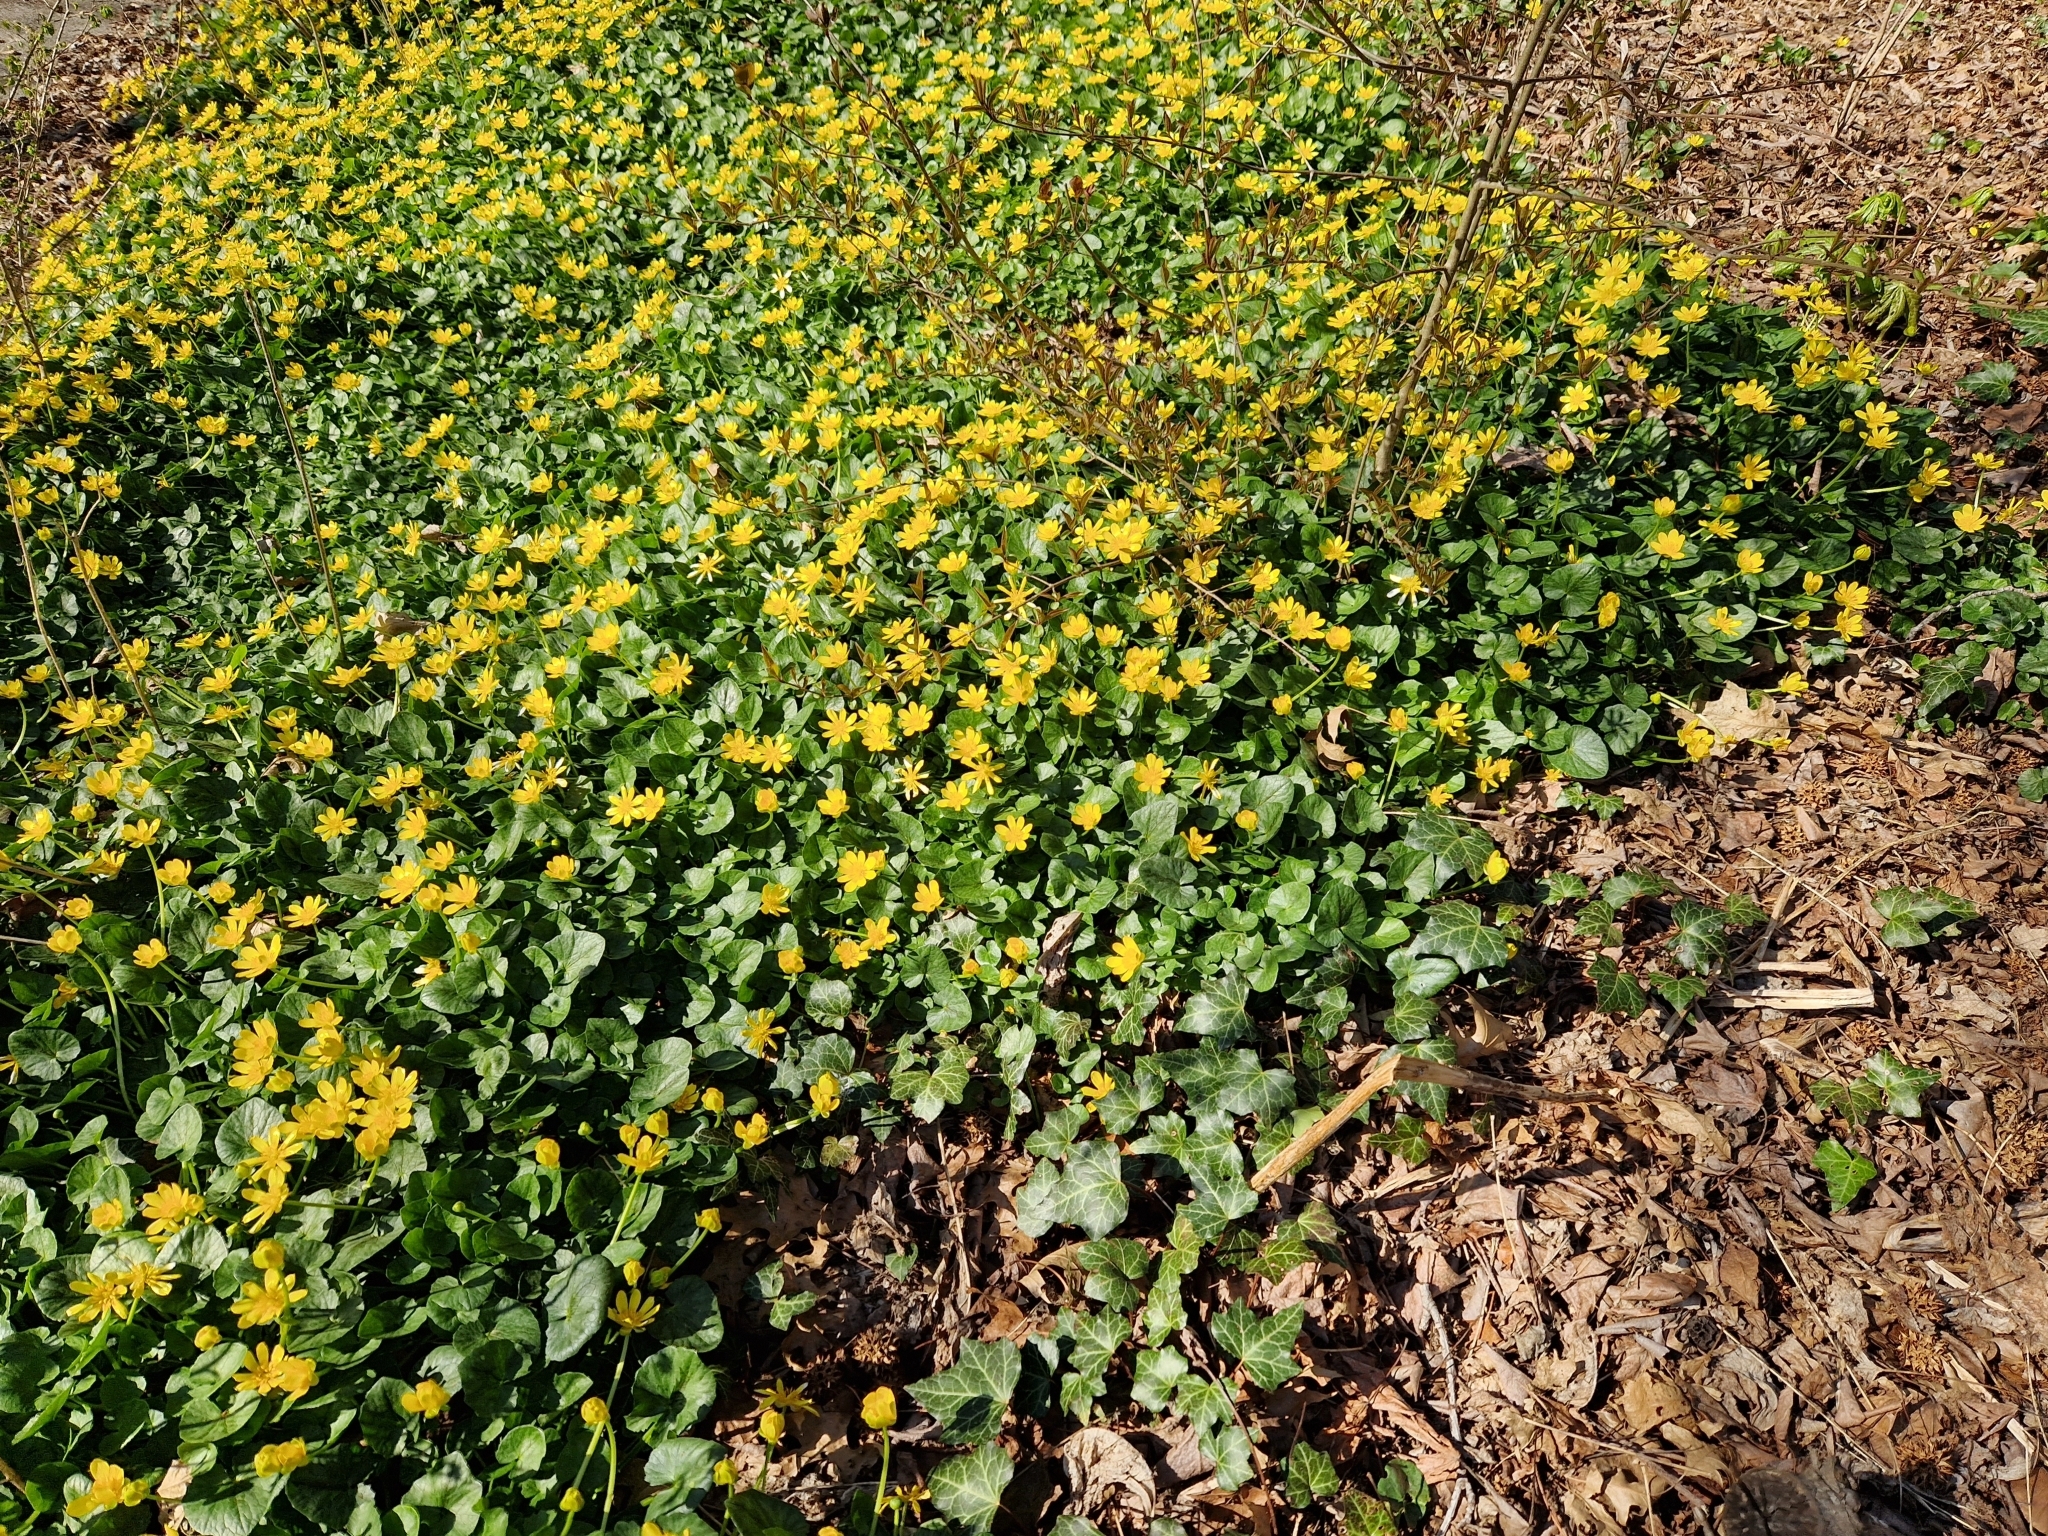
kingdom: Plantae
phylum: Tracheophyta
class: Magnoliopsida
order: Ranunculales
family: Ranunculaceae
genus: Ficaria
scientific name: Ficaria verna
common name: Lesser celandine
